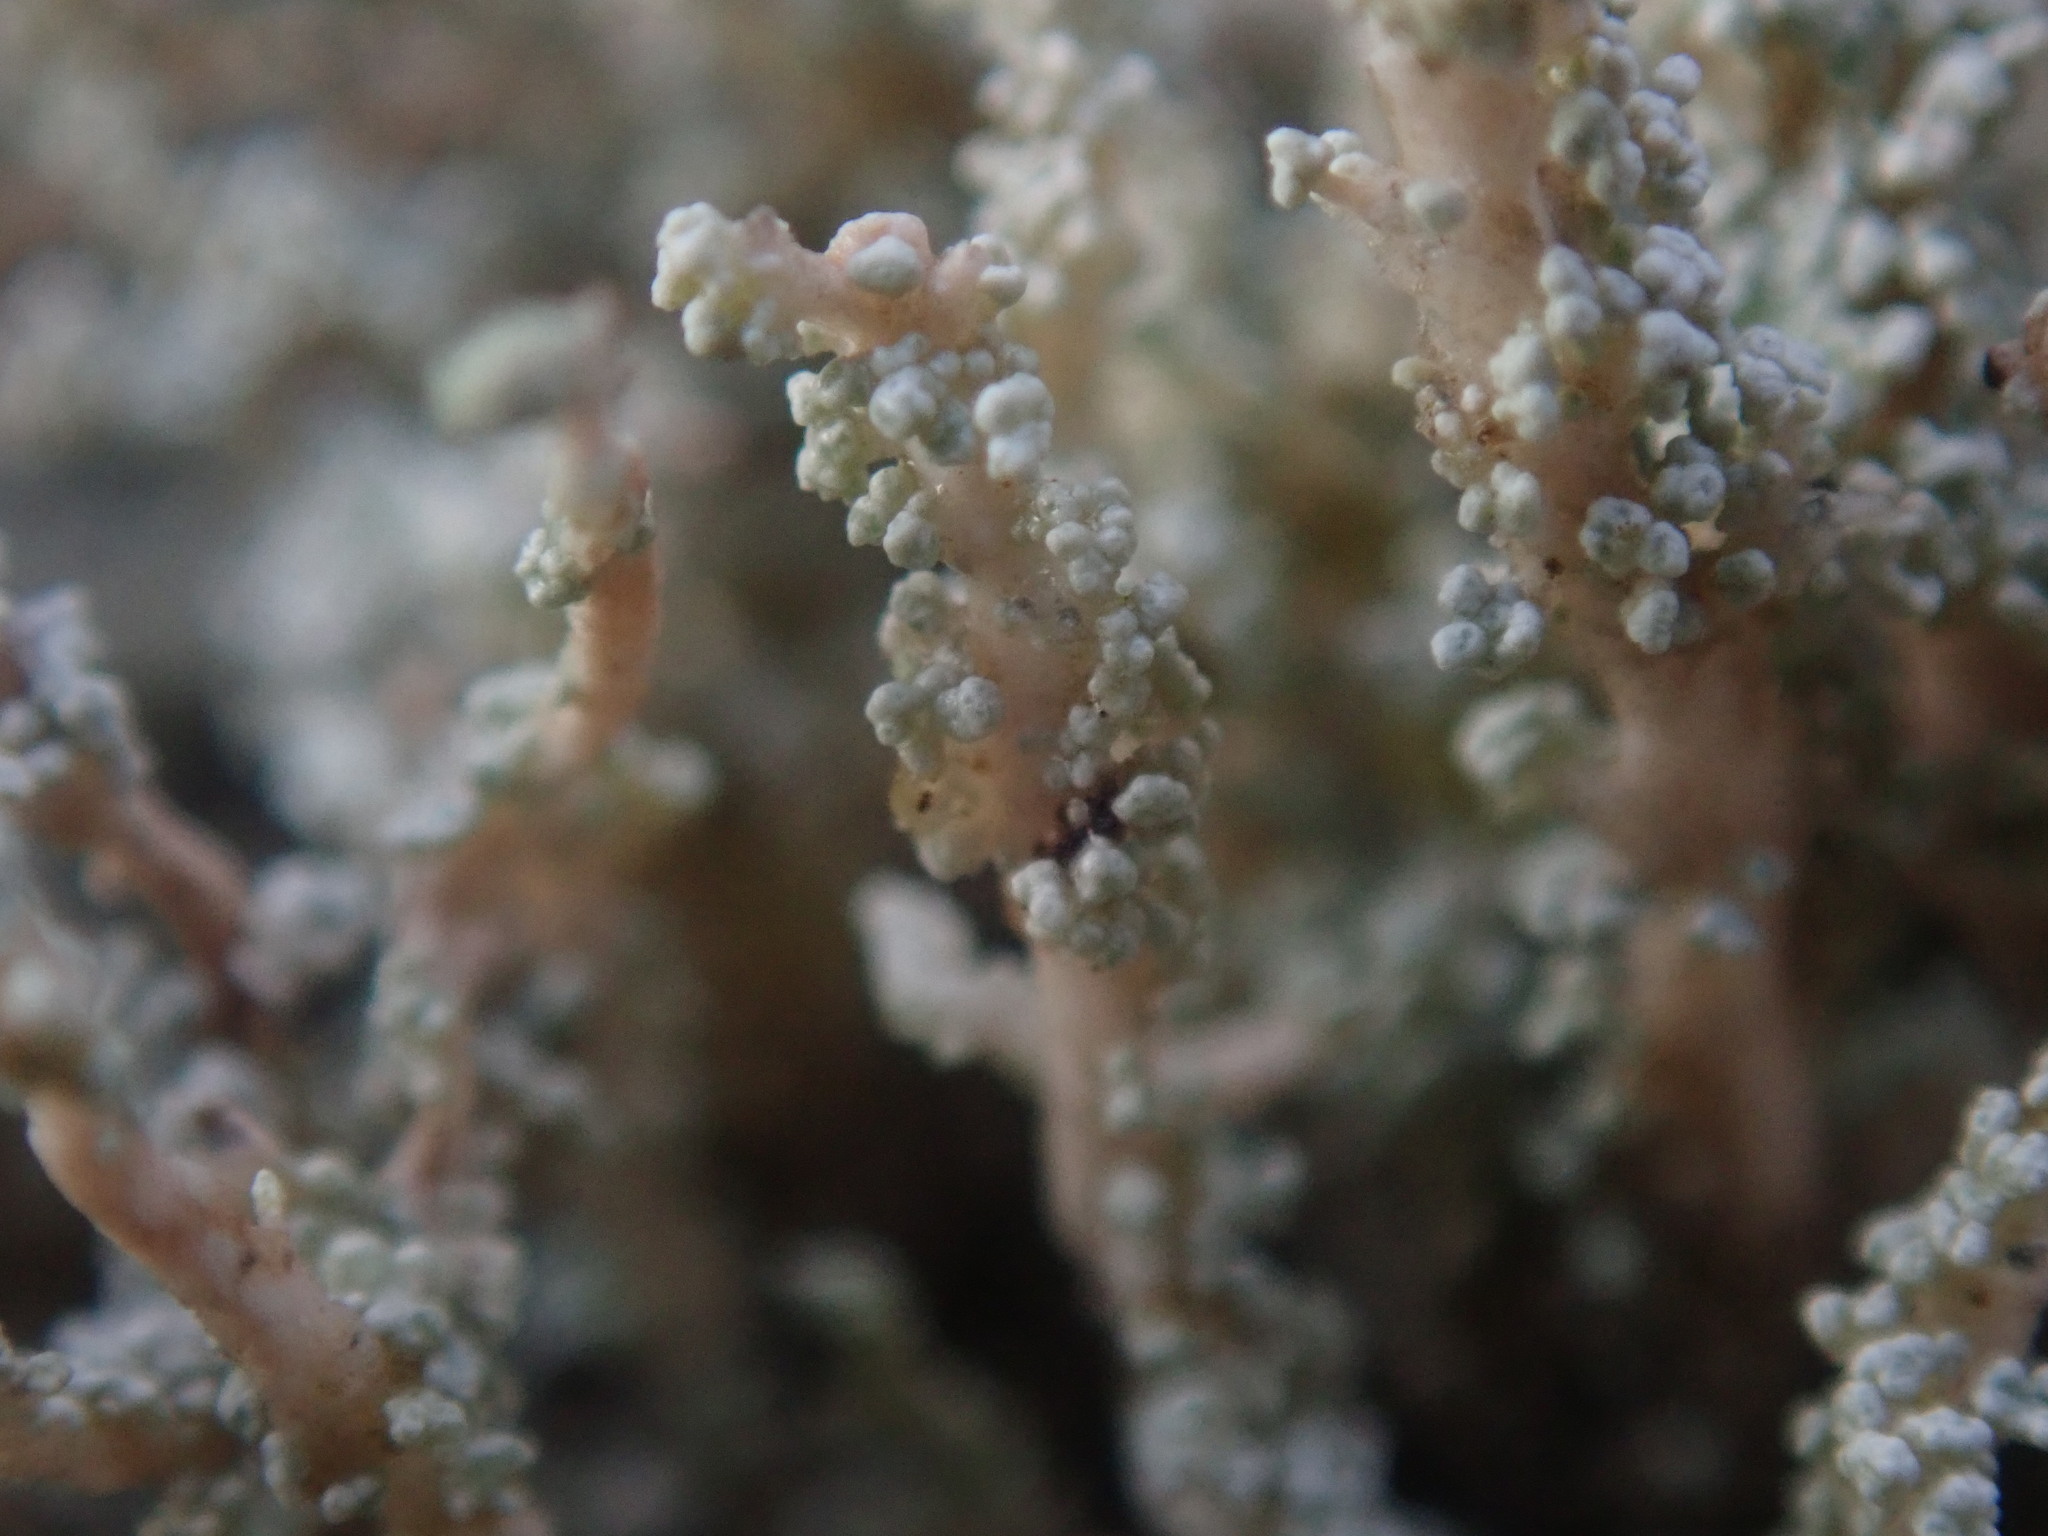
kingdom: Fungi
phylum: Ascomycota
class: Lecanoromycetes
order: Lecanorales
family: Stereocaulaceae
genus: Stereocaulon
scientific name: Stereocaulon vesuvianum
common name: Variegated foam lichen
